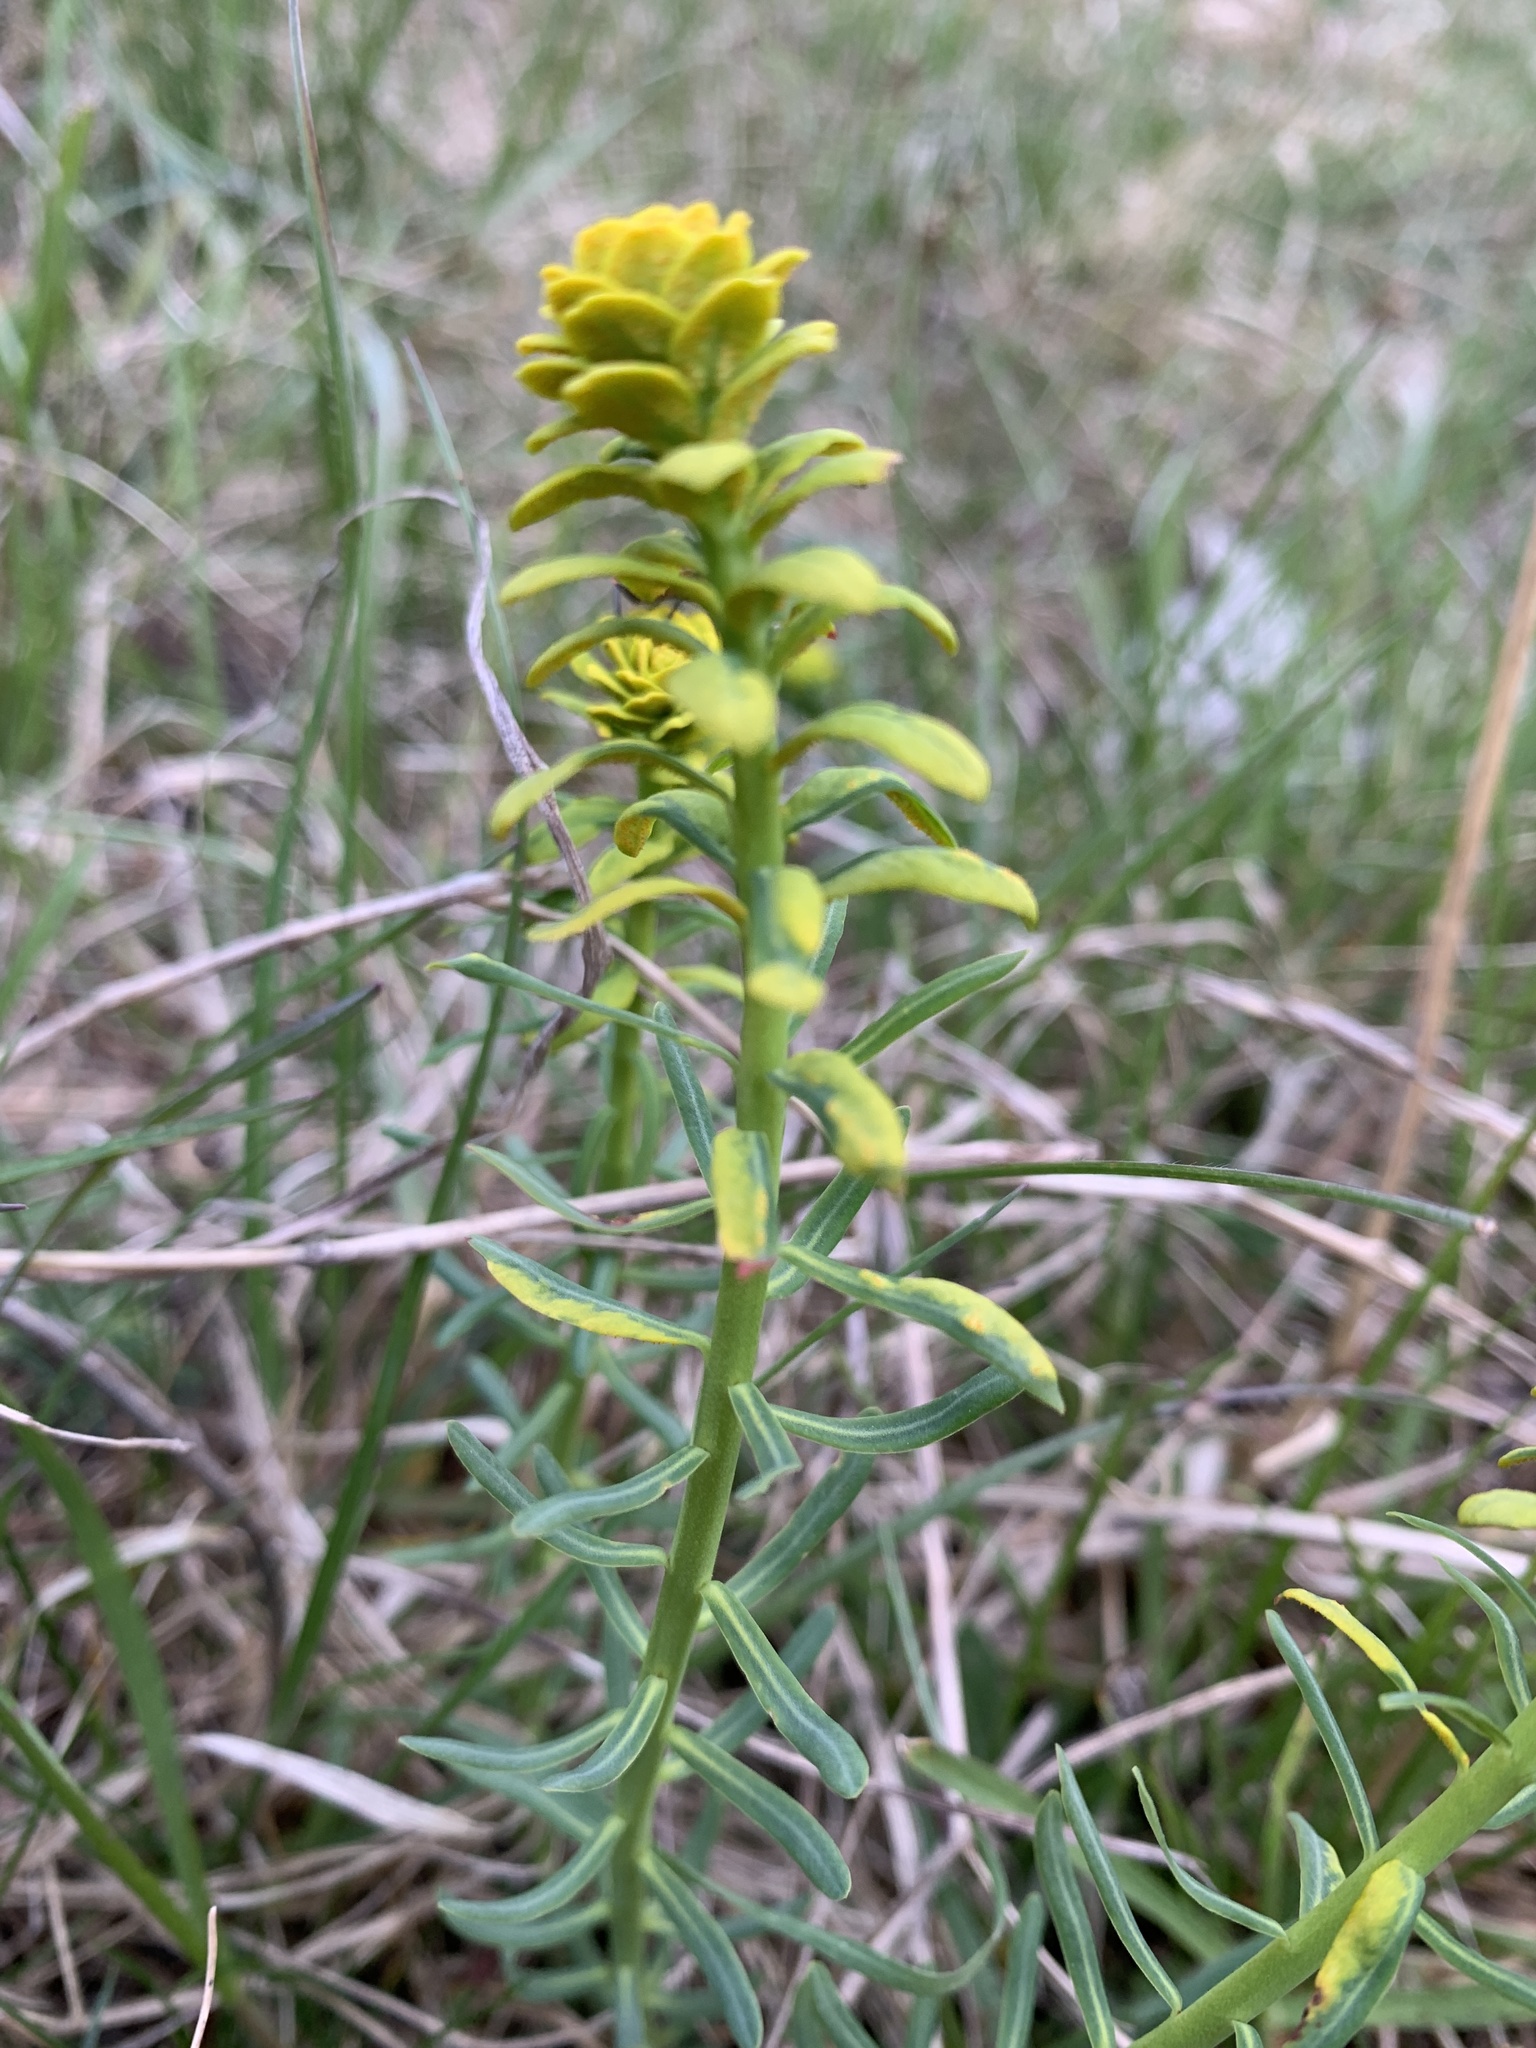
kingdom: Plantae
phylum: Tracheophyta
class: Magnoliopsida
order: Malpighiales
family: Euphorbiaceae
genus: Euphorbia
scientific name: Euphorbia cyparissias
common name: Cypress spurge
